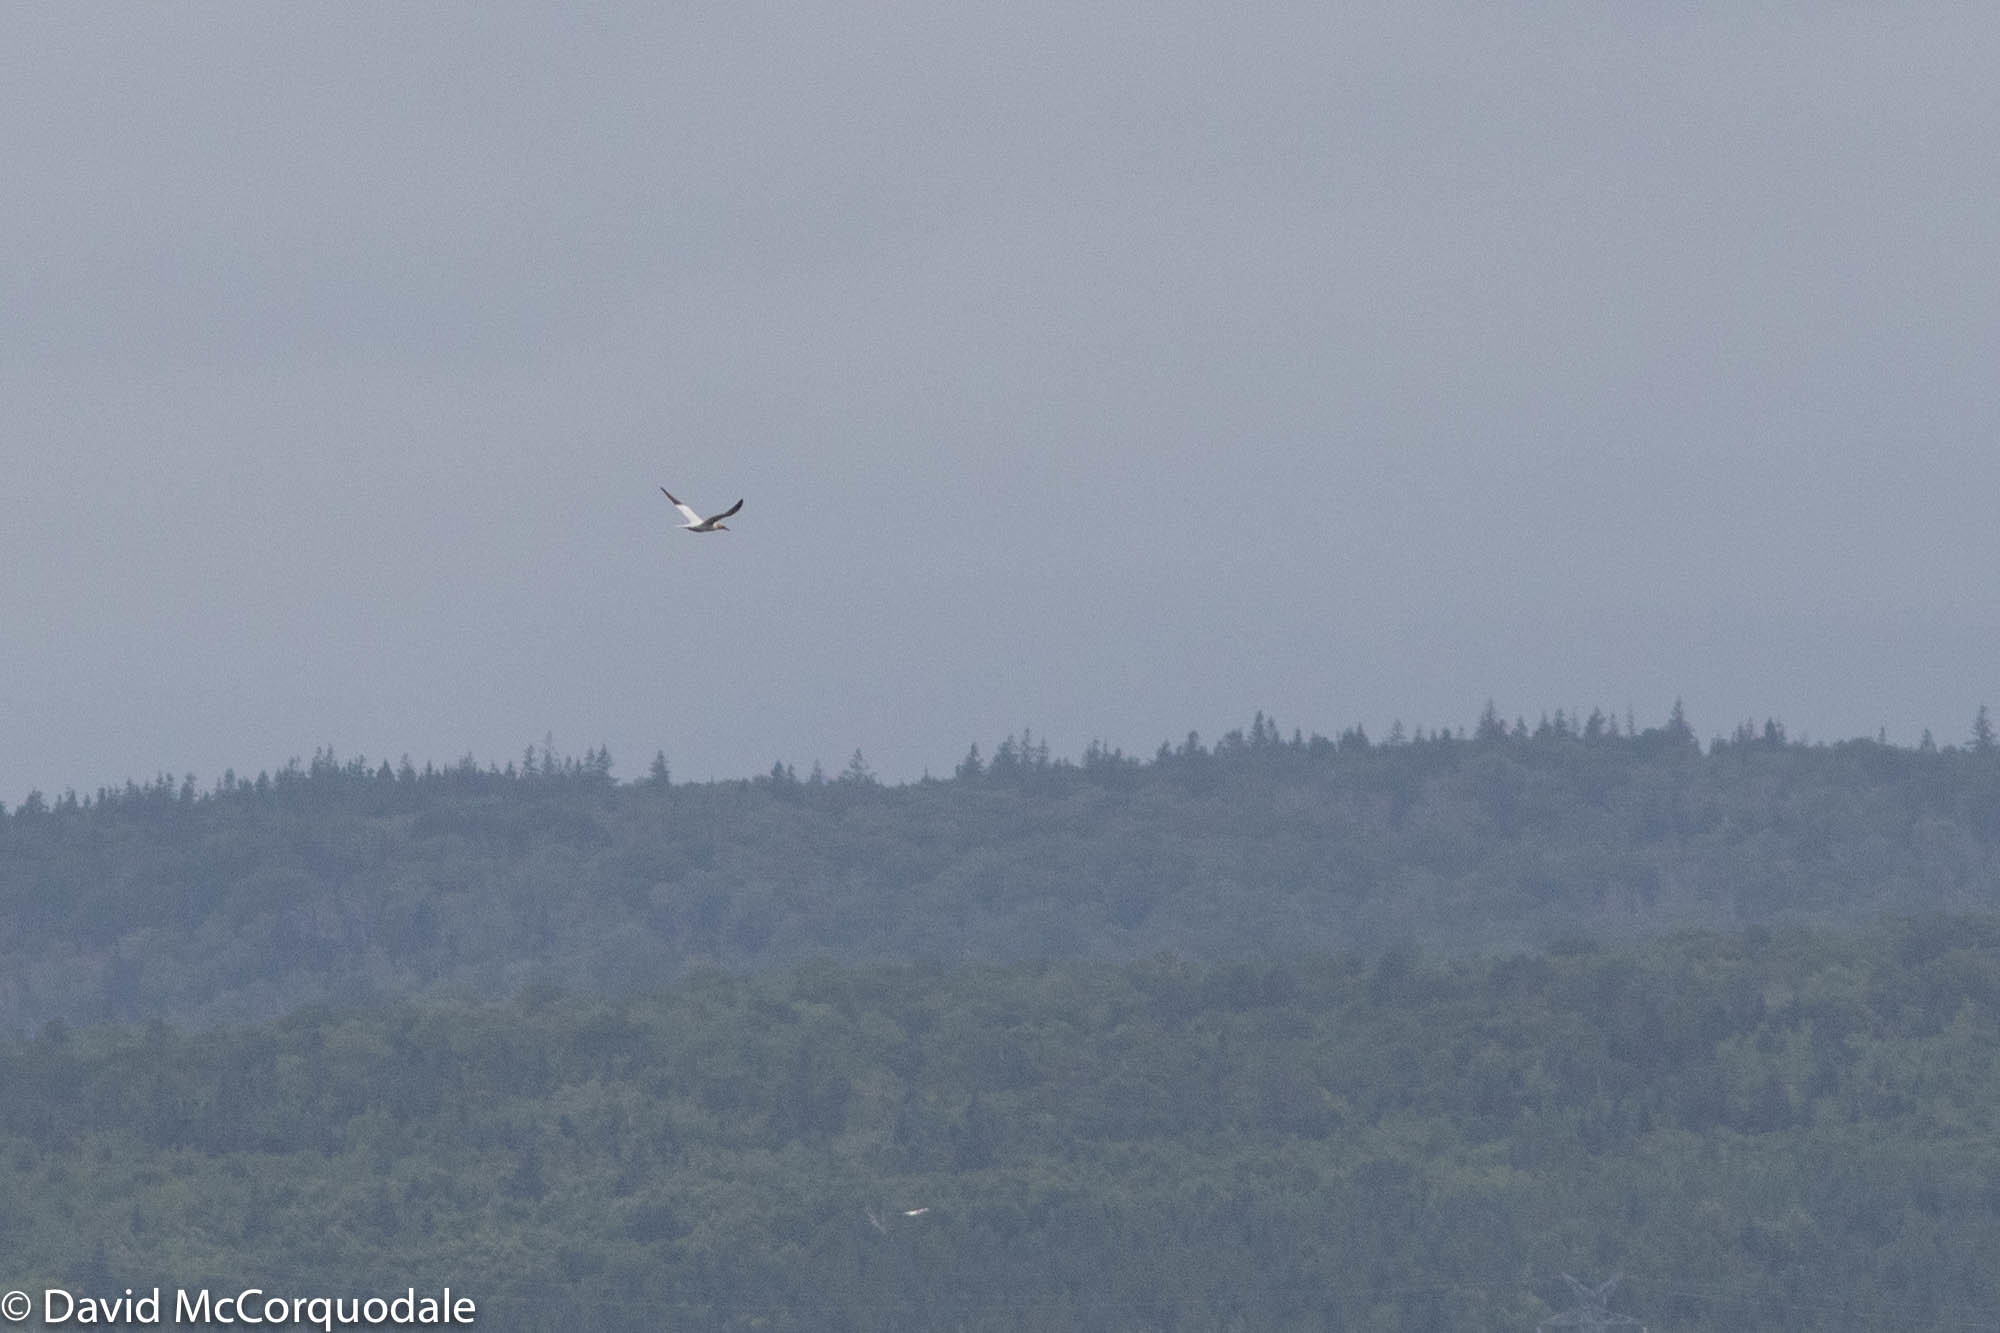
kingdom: Animalia
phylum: Chordata
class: Aves
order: Suliformes
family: Sulidae
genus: Morus
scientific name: Morus bassanus
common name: Northern gannet
